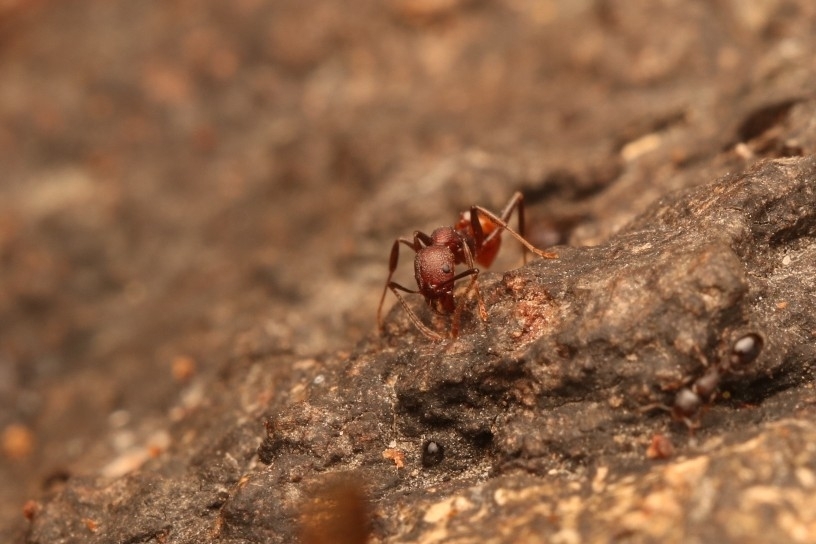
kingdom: Animalia
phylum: Arthropoda
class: Insecta
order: Hymenoptera
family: Formicidae
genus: Aphaenogaster
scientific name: Aphaenogaster tennesseensis
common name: Tennessee thread-waisted ant
